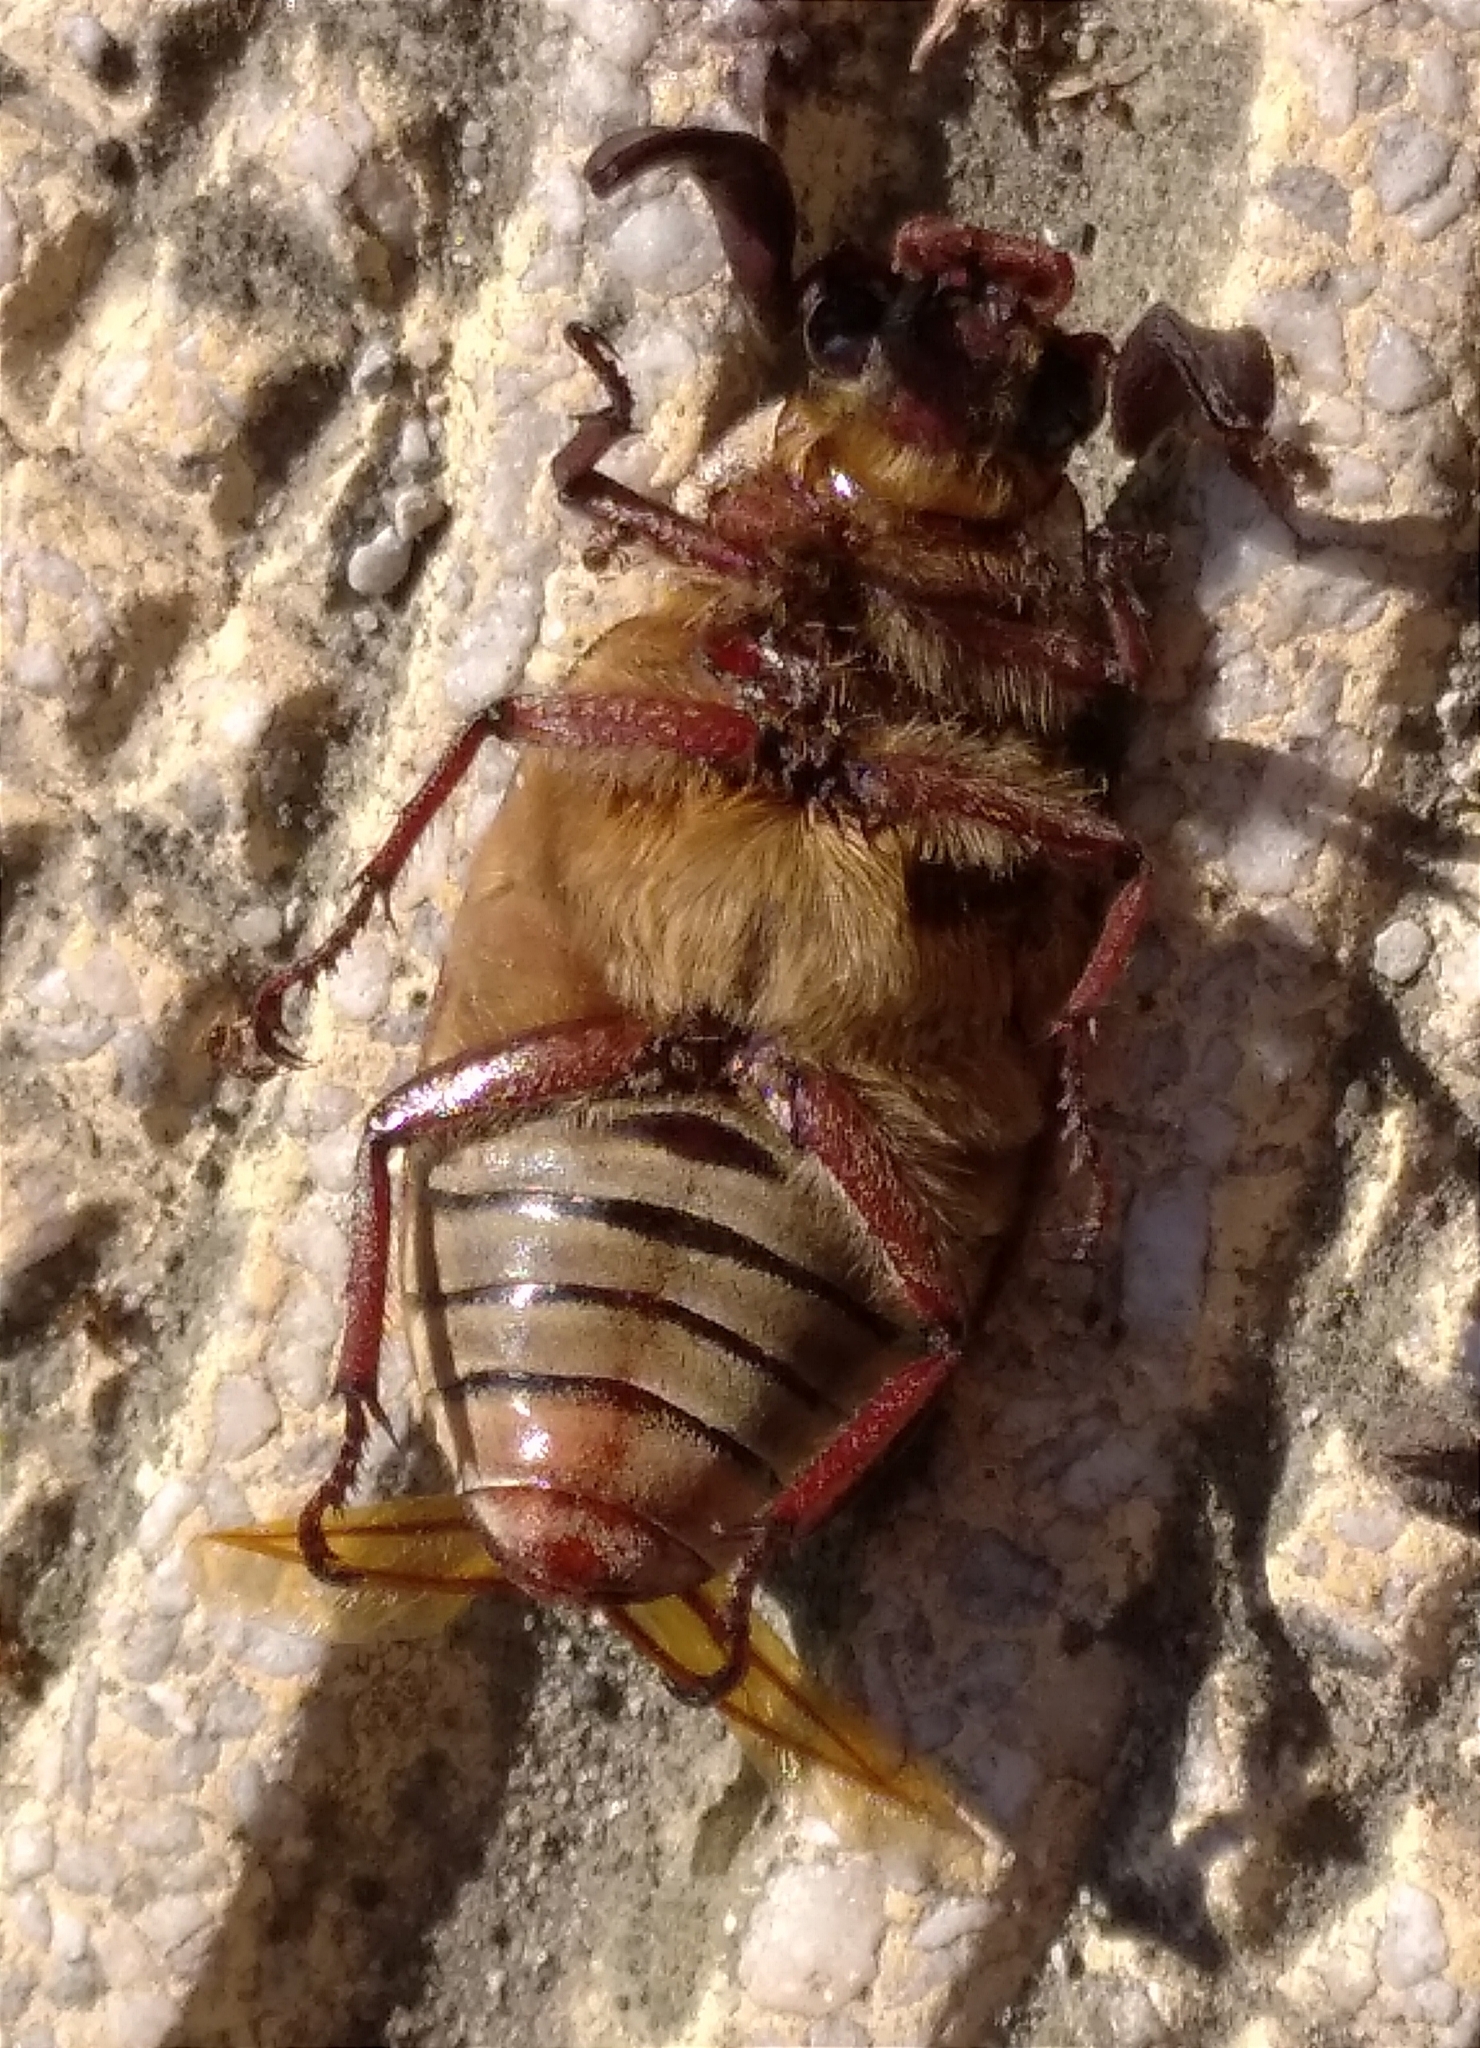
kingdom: Animalia
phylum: Arthropoda
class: Insecta
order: Coleoptera
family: Scarabaeidae
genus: Polyphylla
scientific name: Polyphylla fullo
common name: Pine chafer
